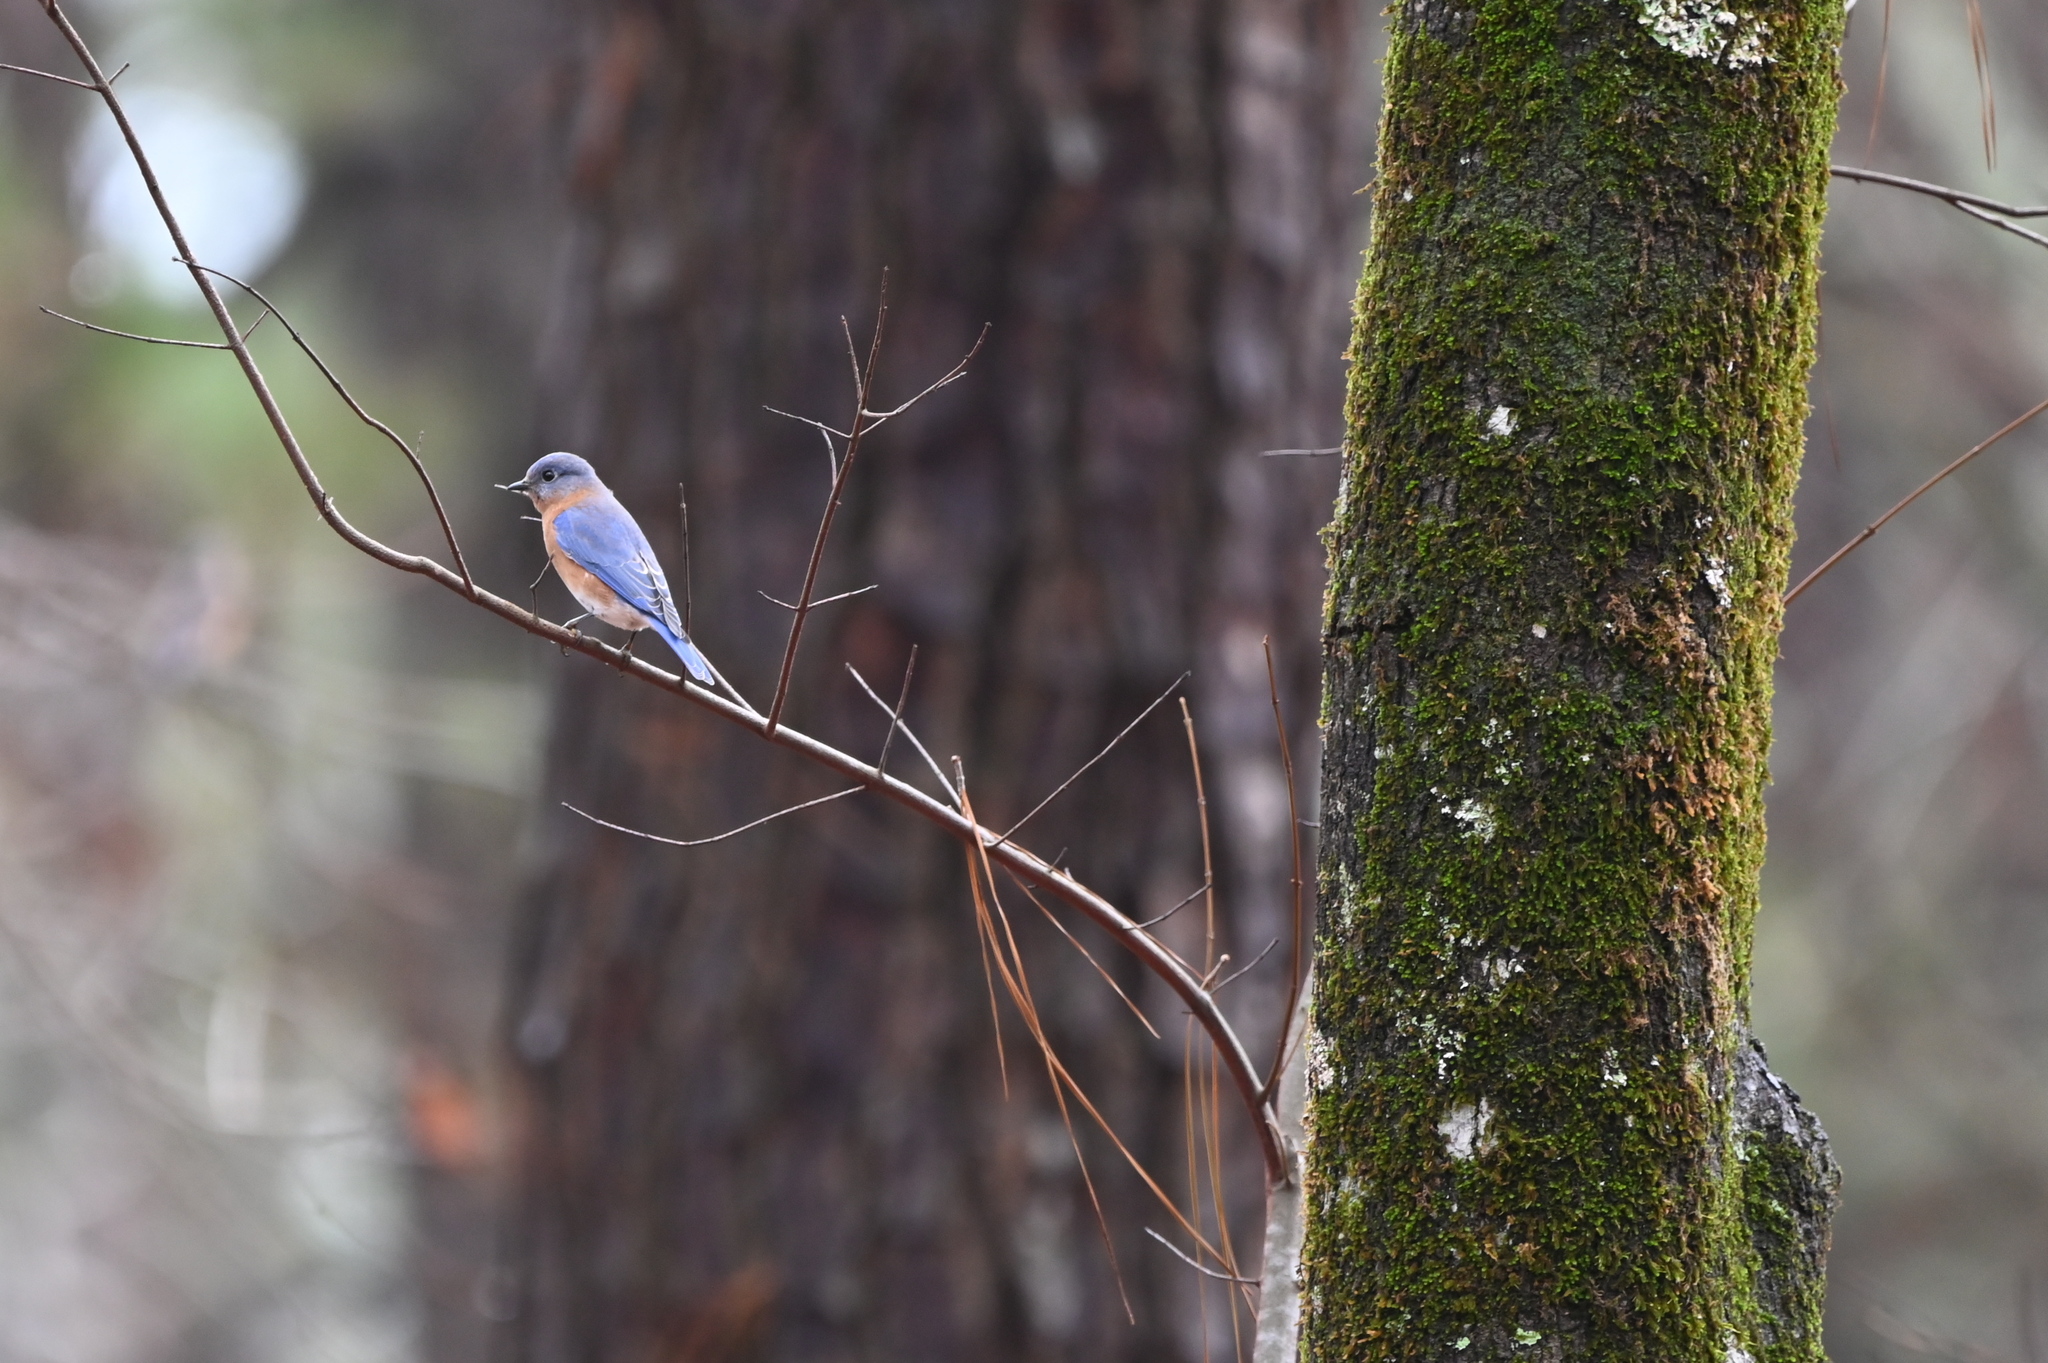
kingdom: Animalia
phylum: Chordata
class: Aves
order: Passeriformes
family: Turdidae
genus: Sialia
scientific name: Sialia sialis
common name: Eastern bluebird
